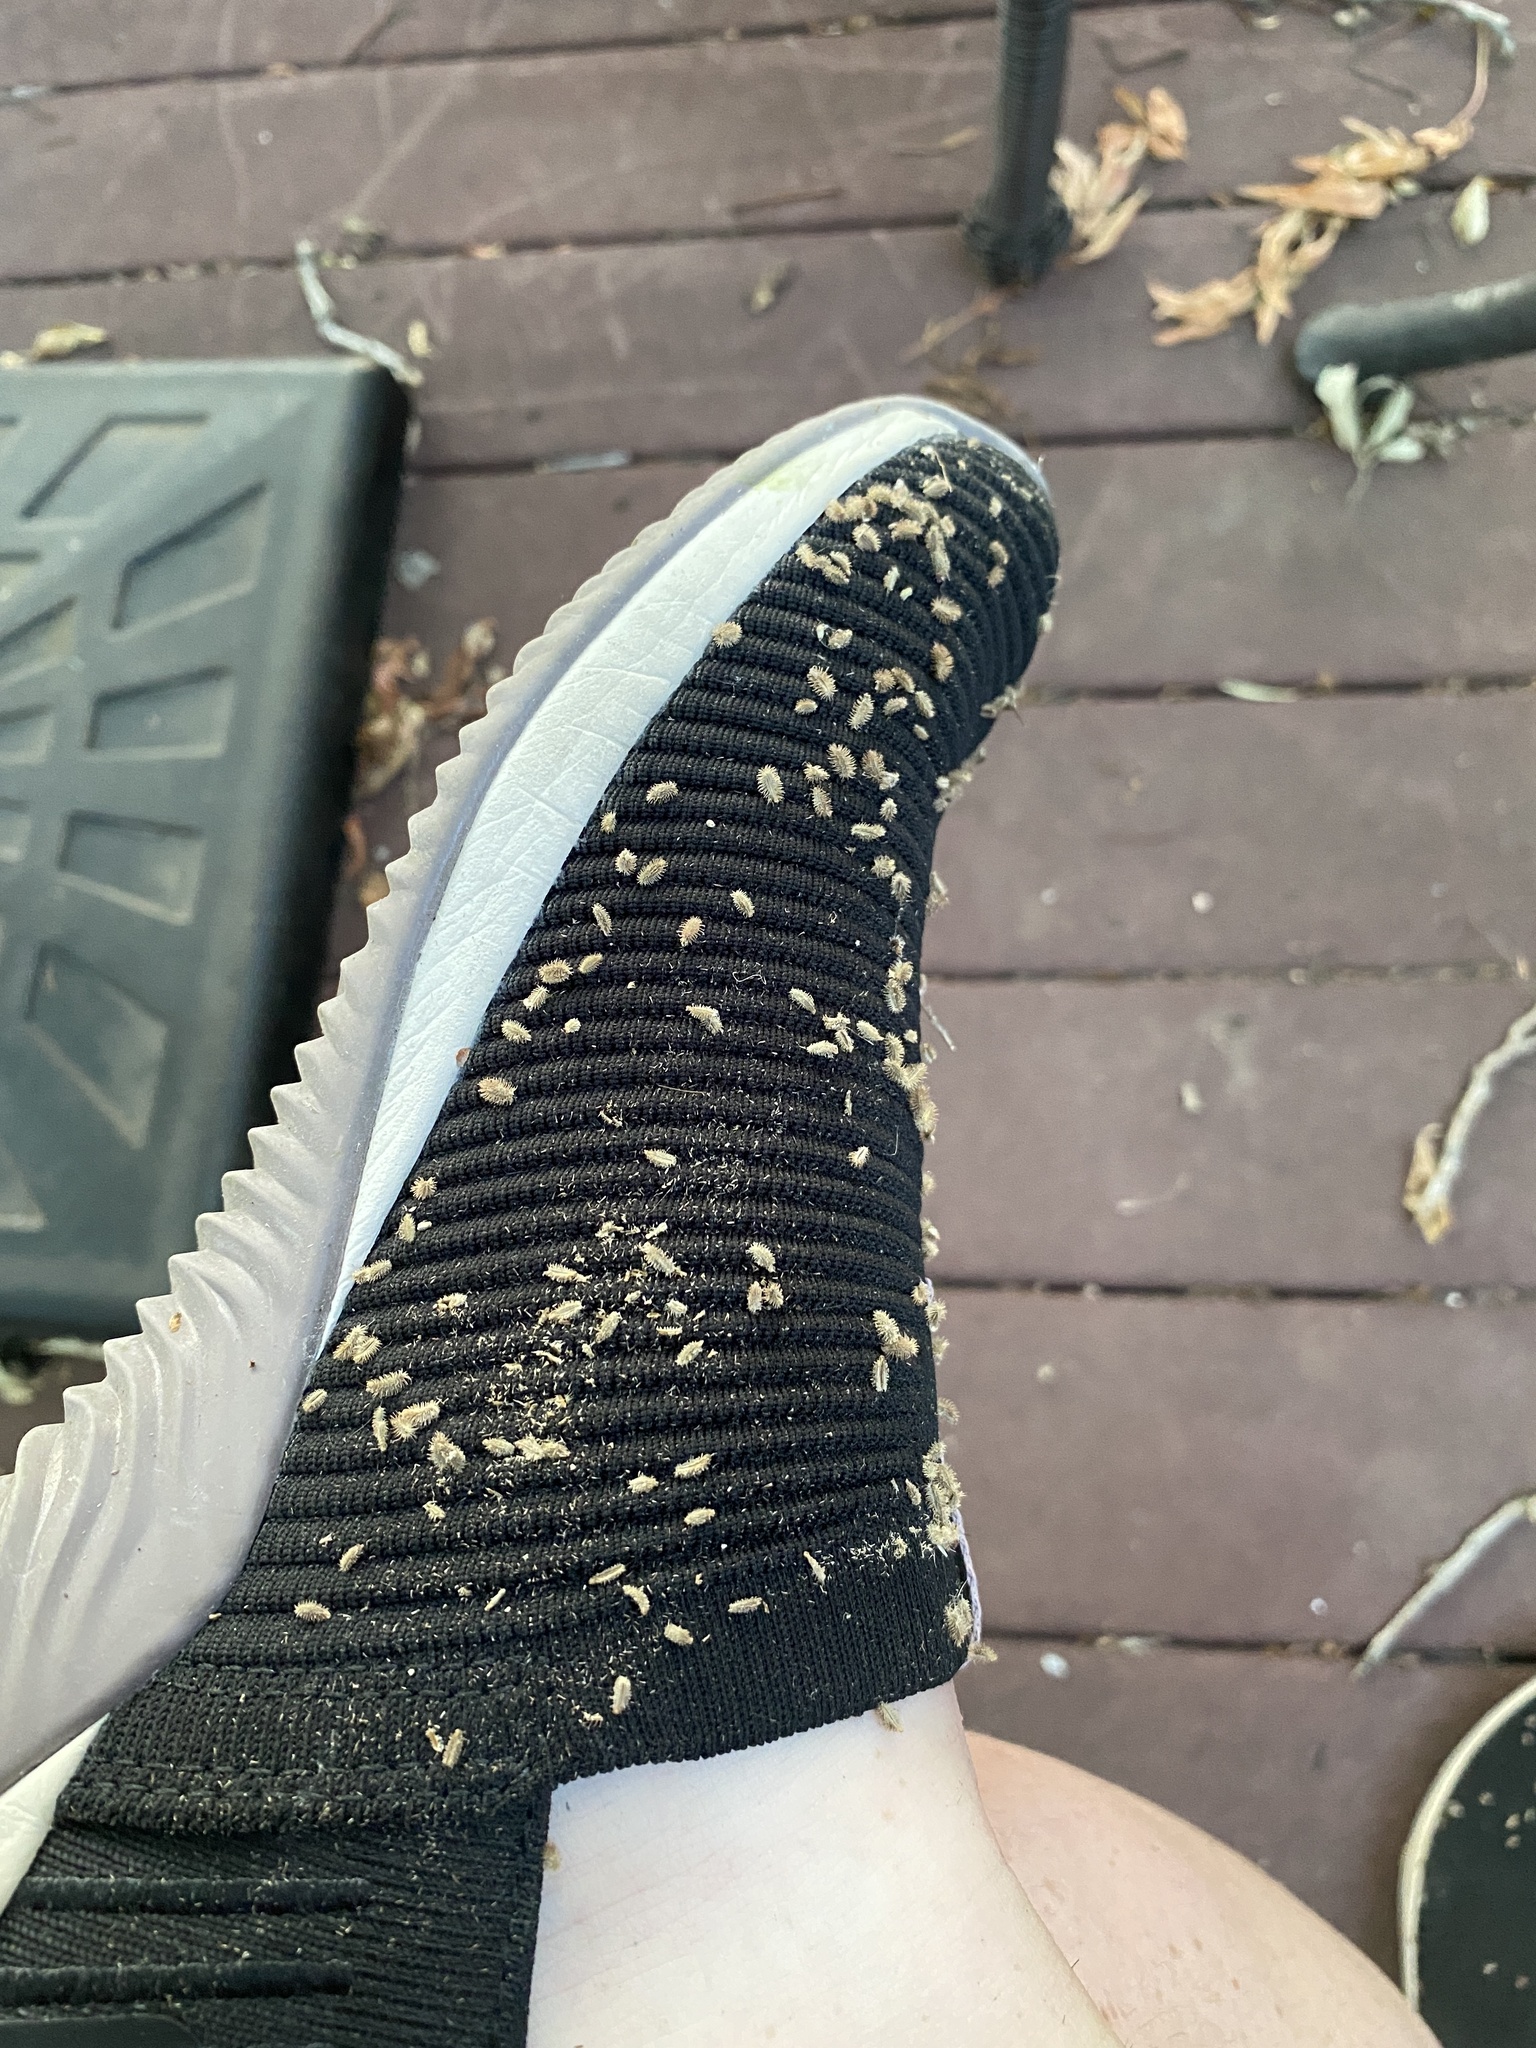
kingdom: Plantae
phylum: Tracheophyta
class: Magnoliopsida
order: Apiales
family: Apiaceae
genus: Torilis
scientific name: Torilis arvensis
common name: Spreading hedge-parsley
